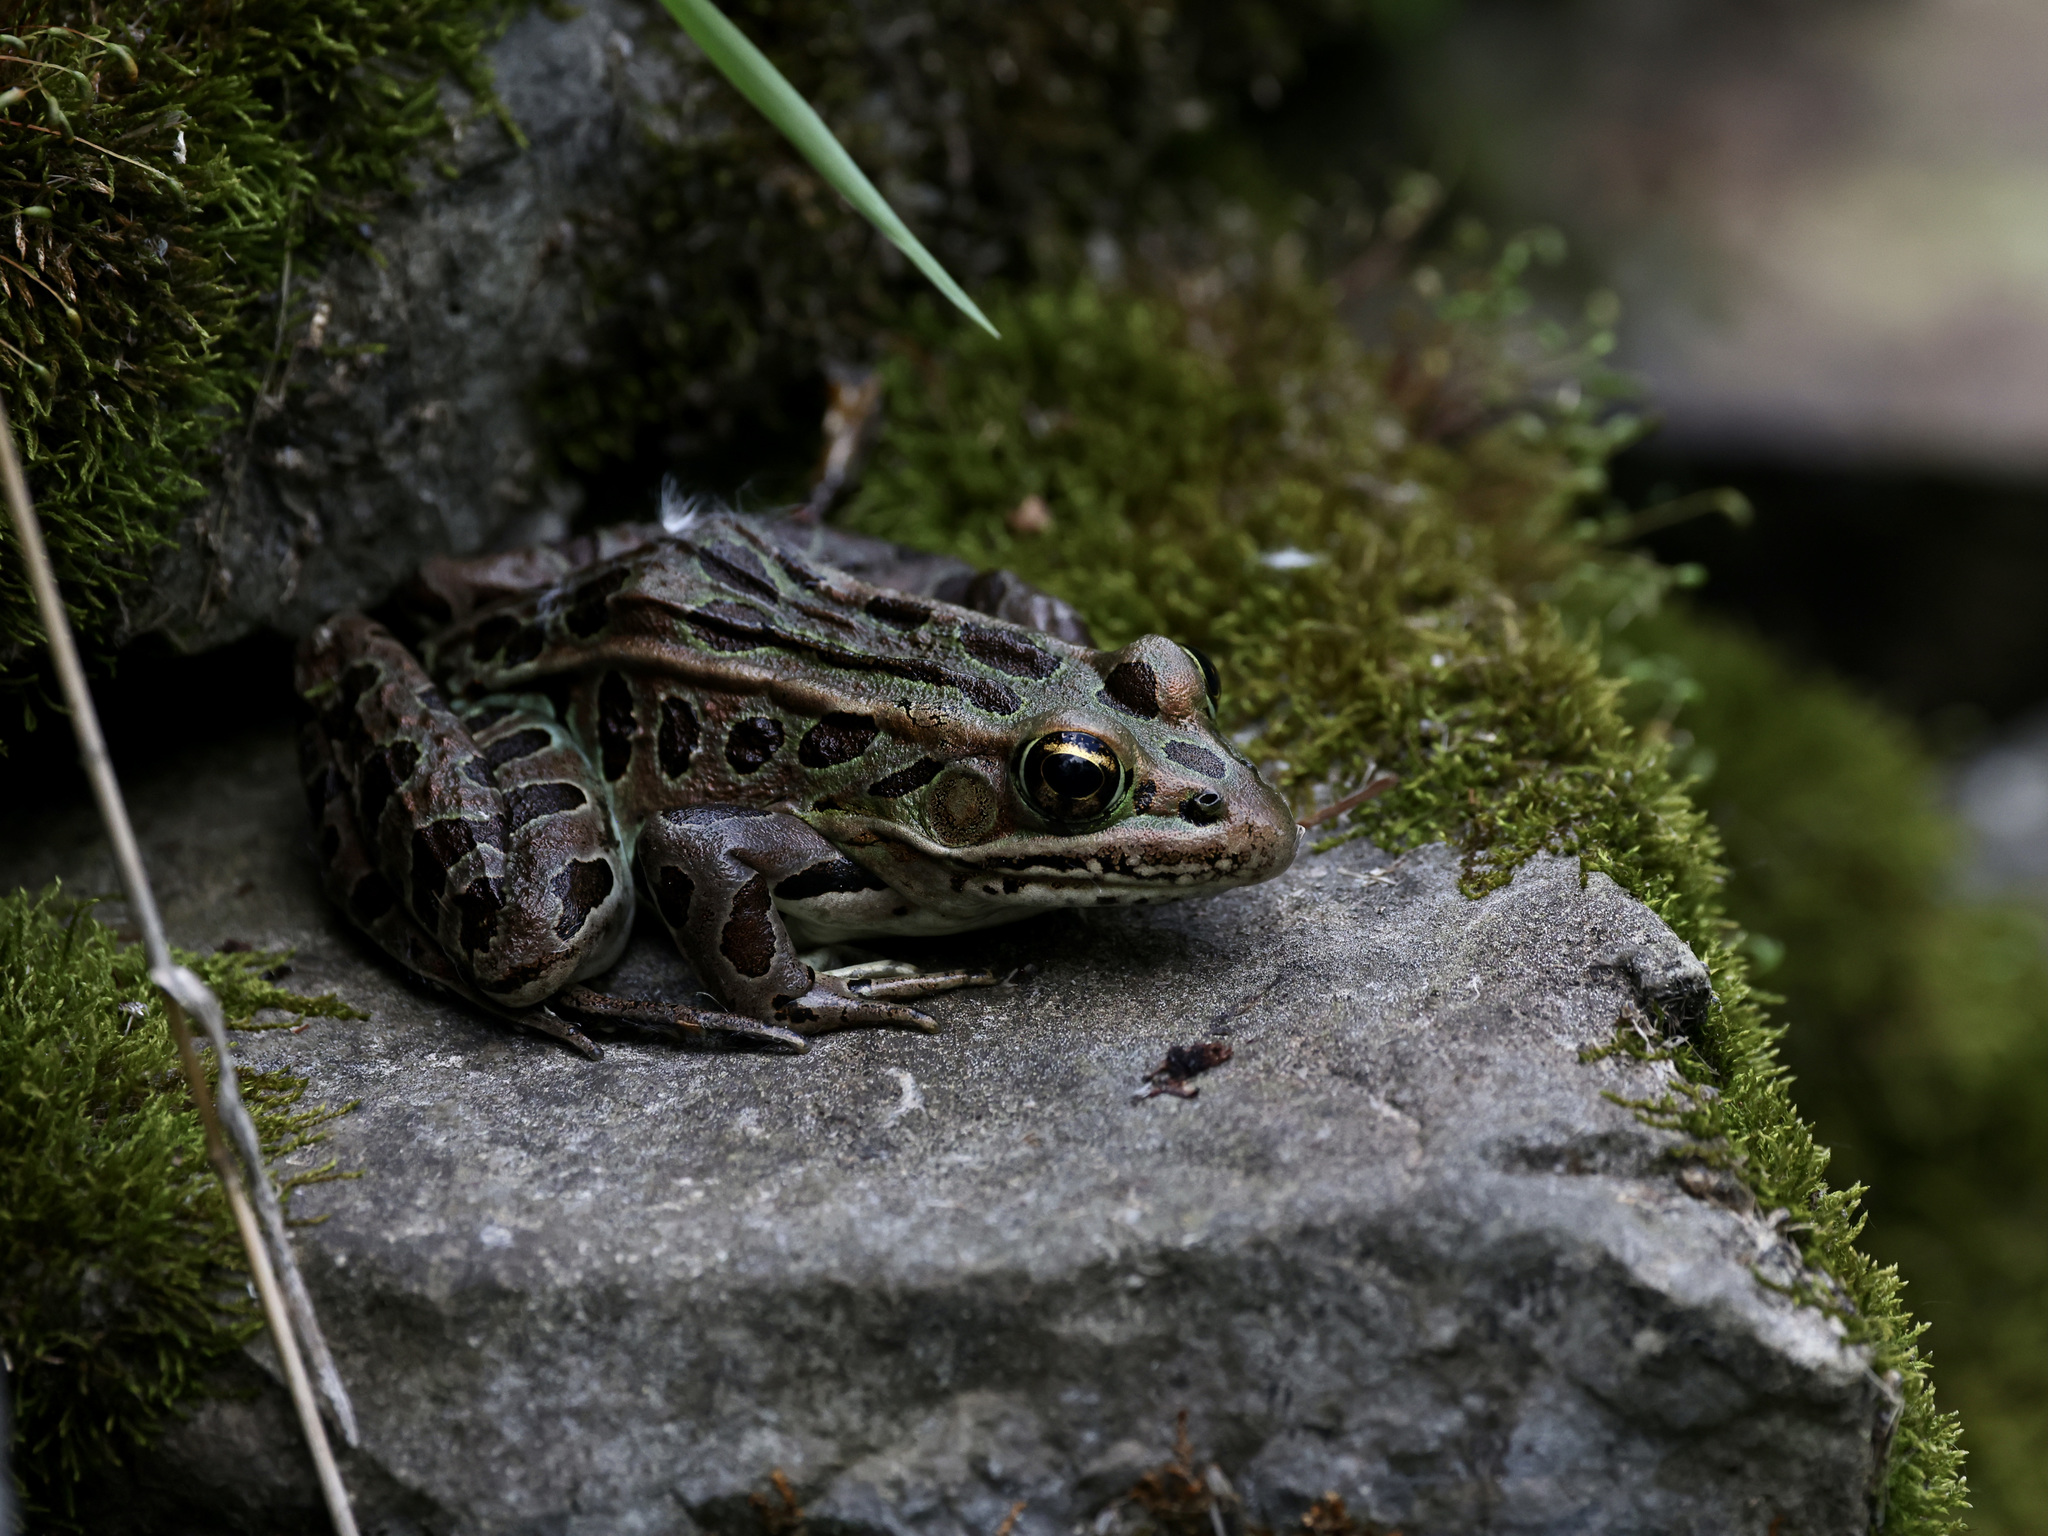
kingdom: Animalia
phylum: Chordata
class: Amphibia
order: Anura
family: Ranidae
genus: Lithobates
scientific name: Lithobates pipiens
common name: Northern leopard frog
